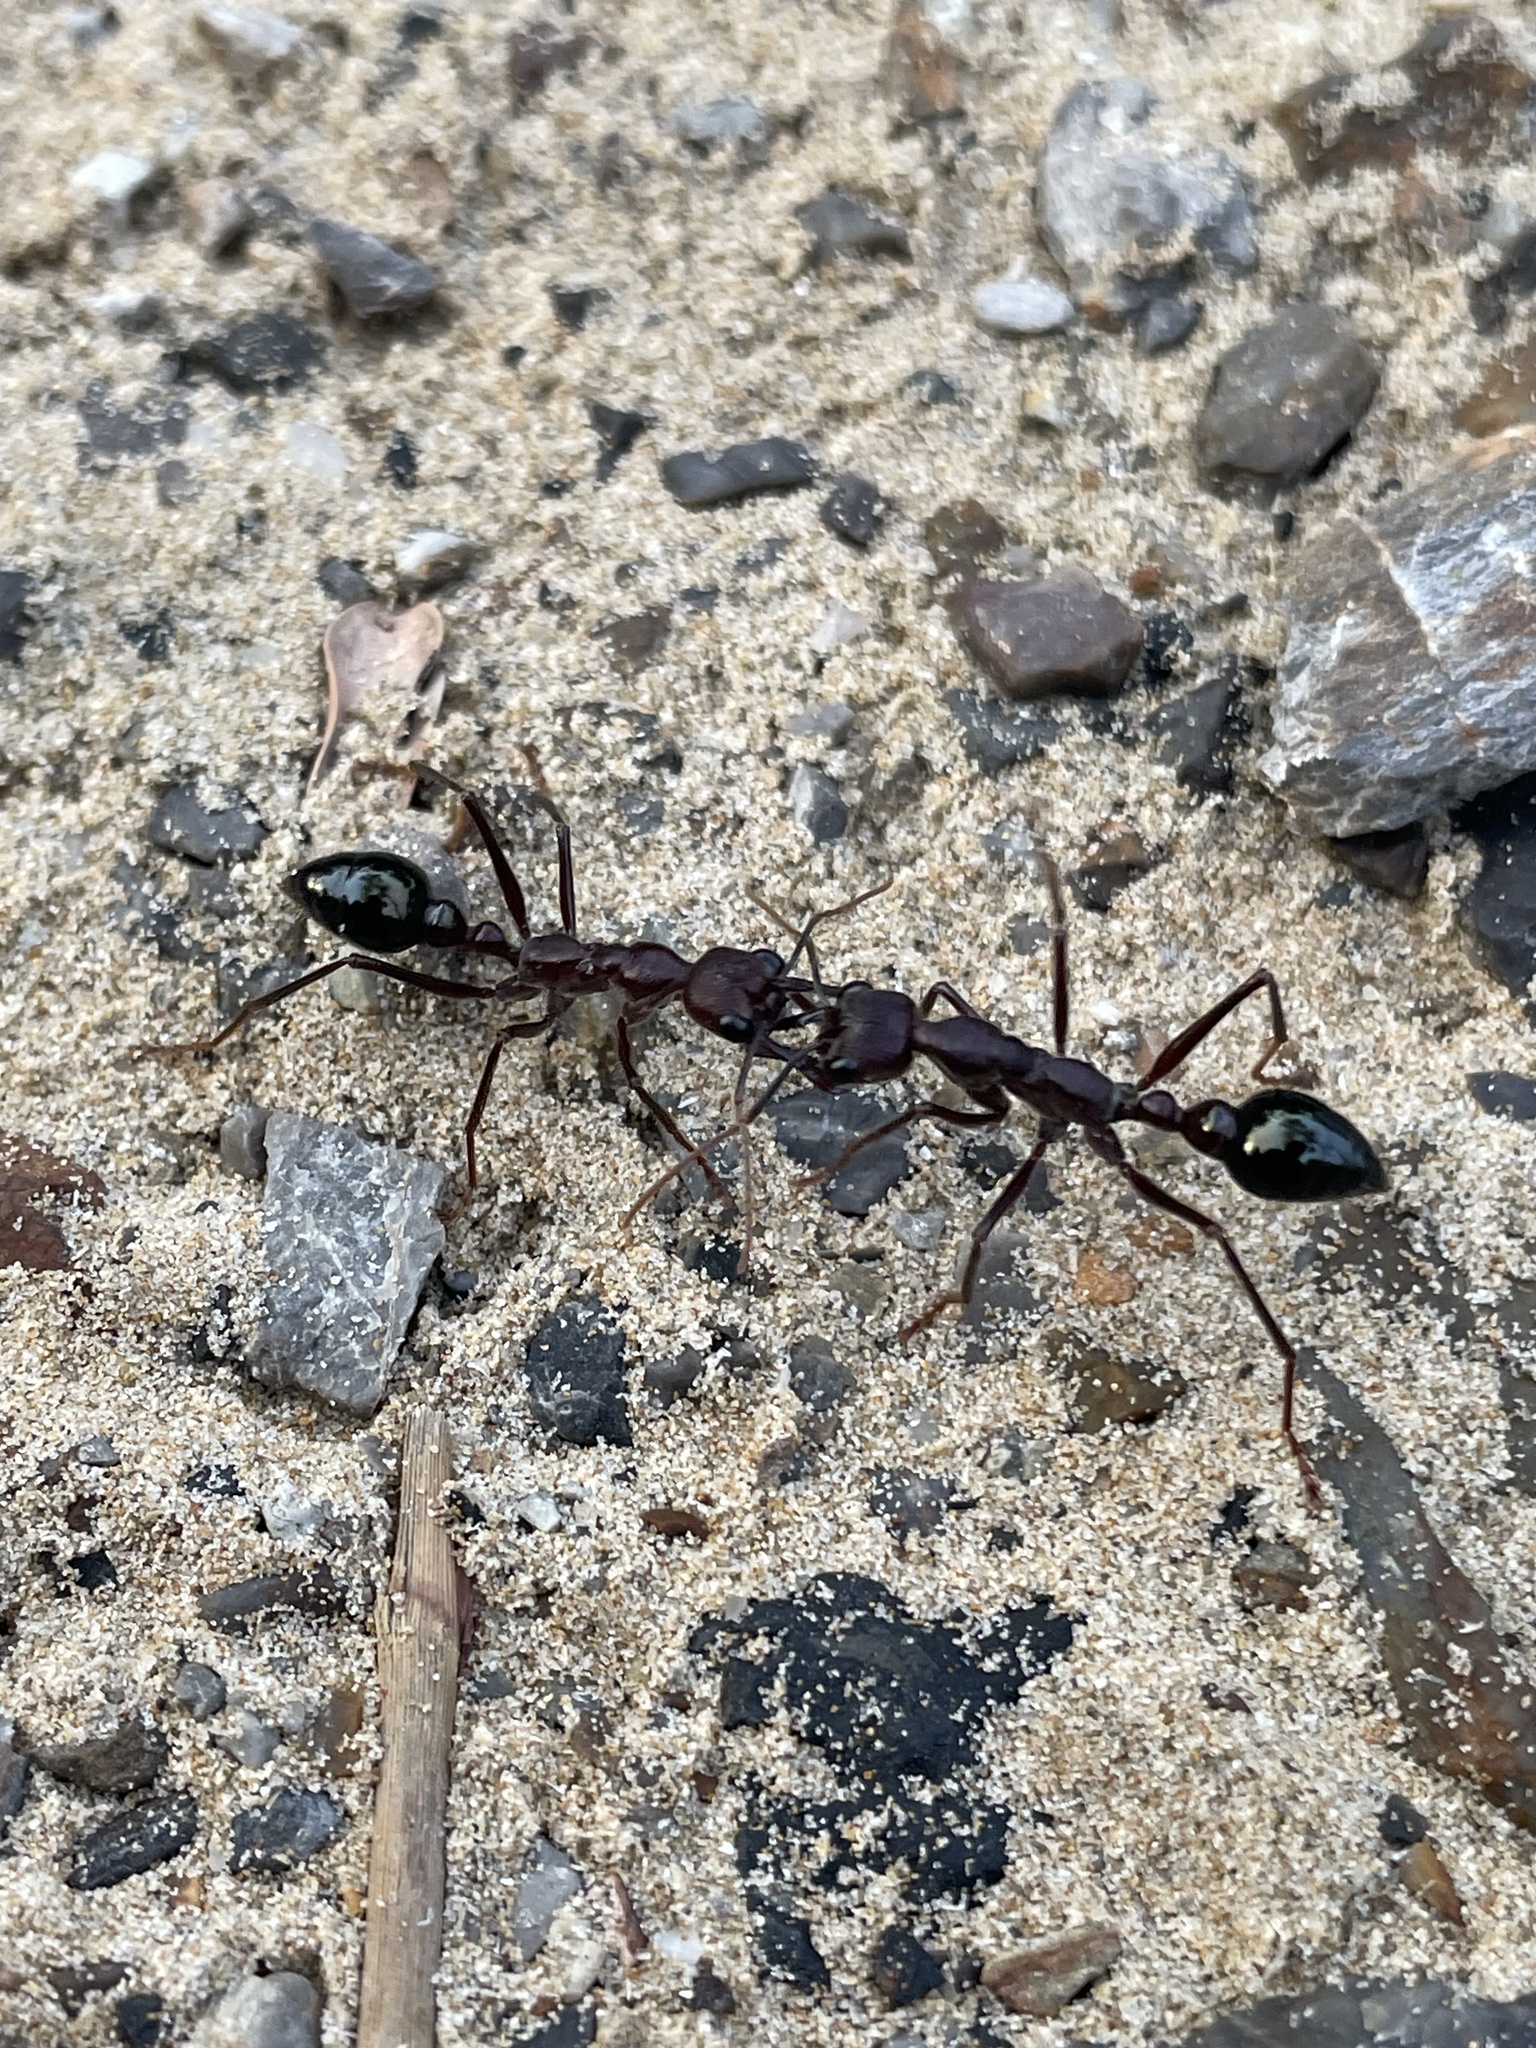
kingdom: Animalia
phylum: Arthropoda
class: Insecta
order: Hymenoptera
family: Formicidae
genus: Myrmecia
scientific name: Myrmecia forficata
